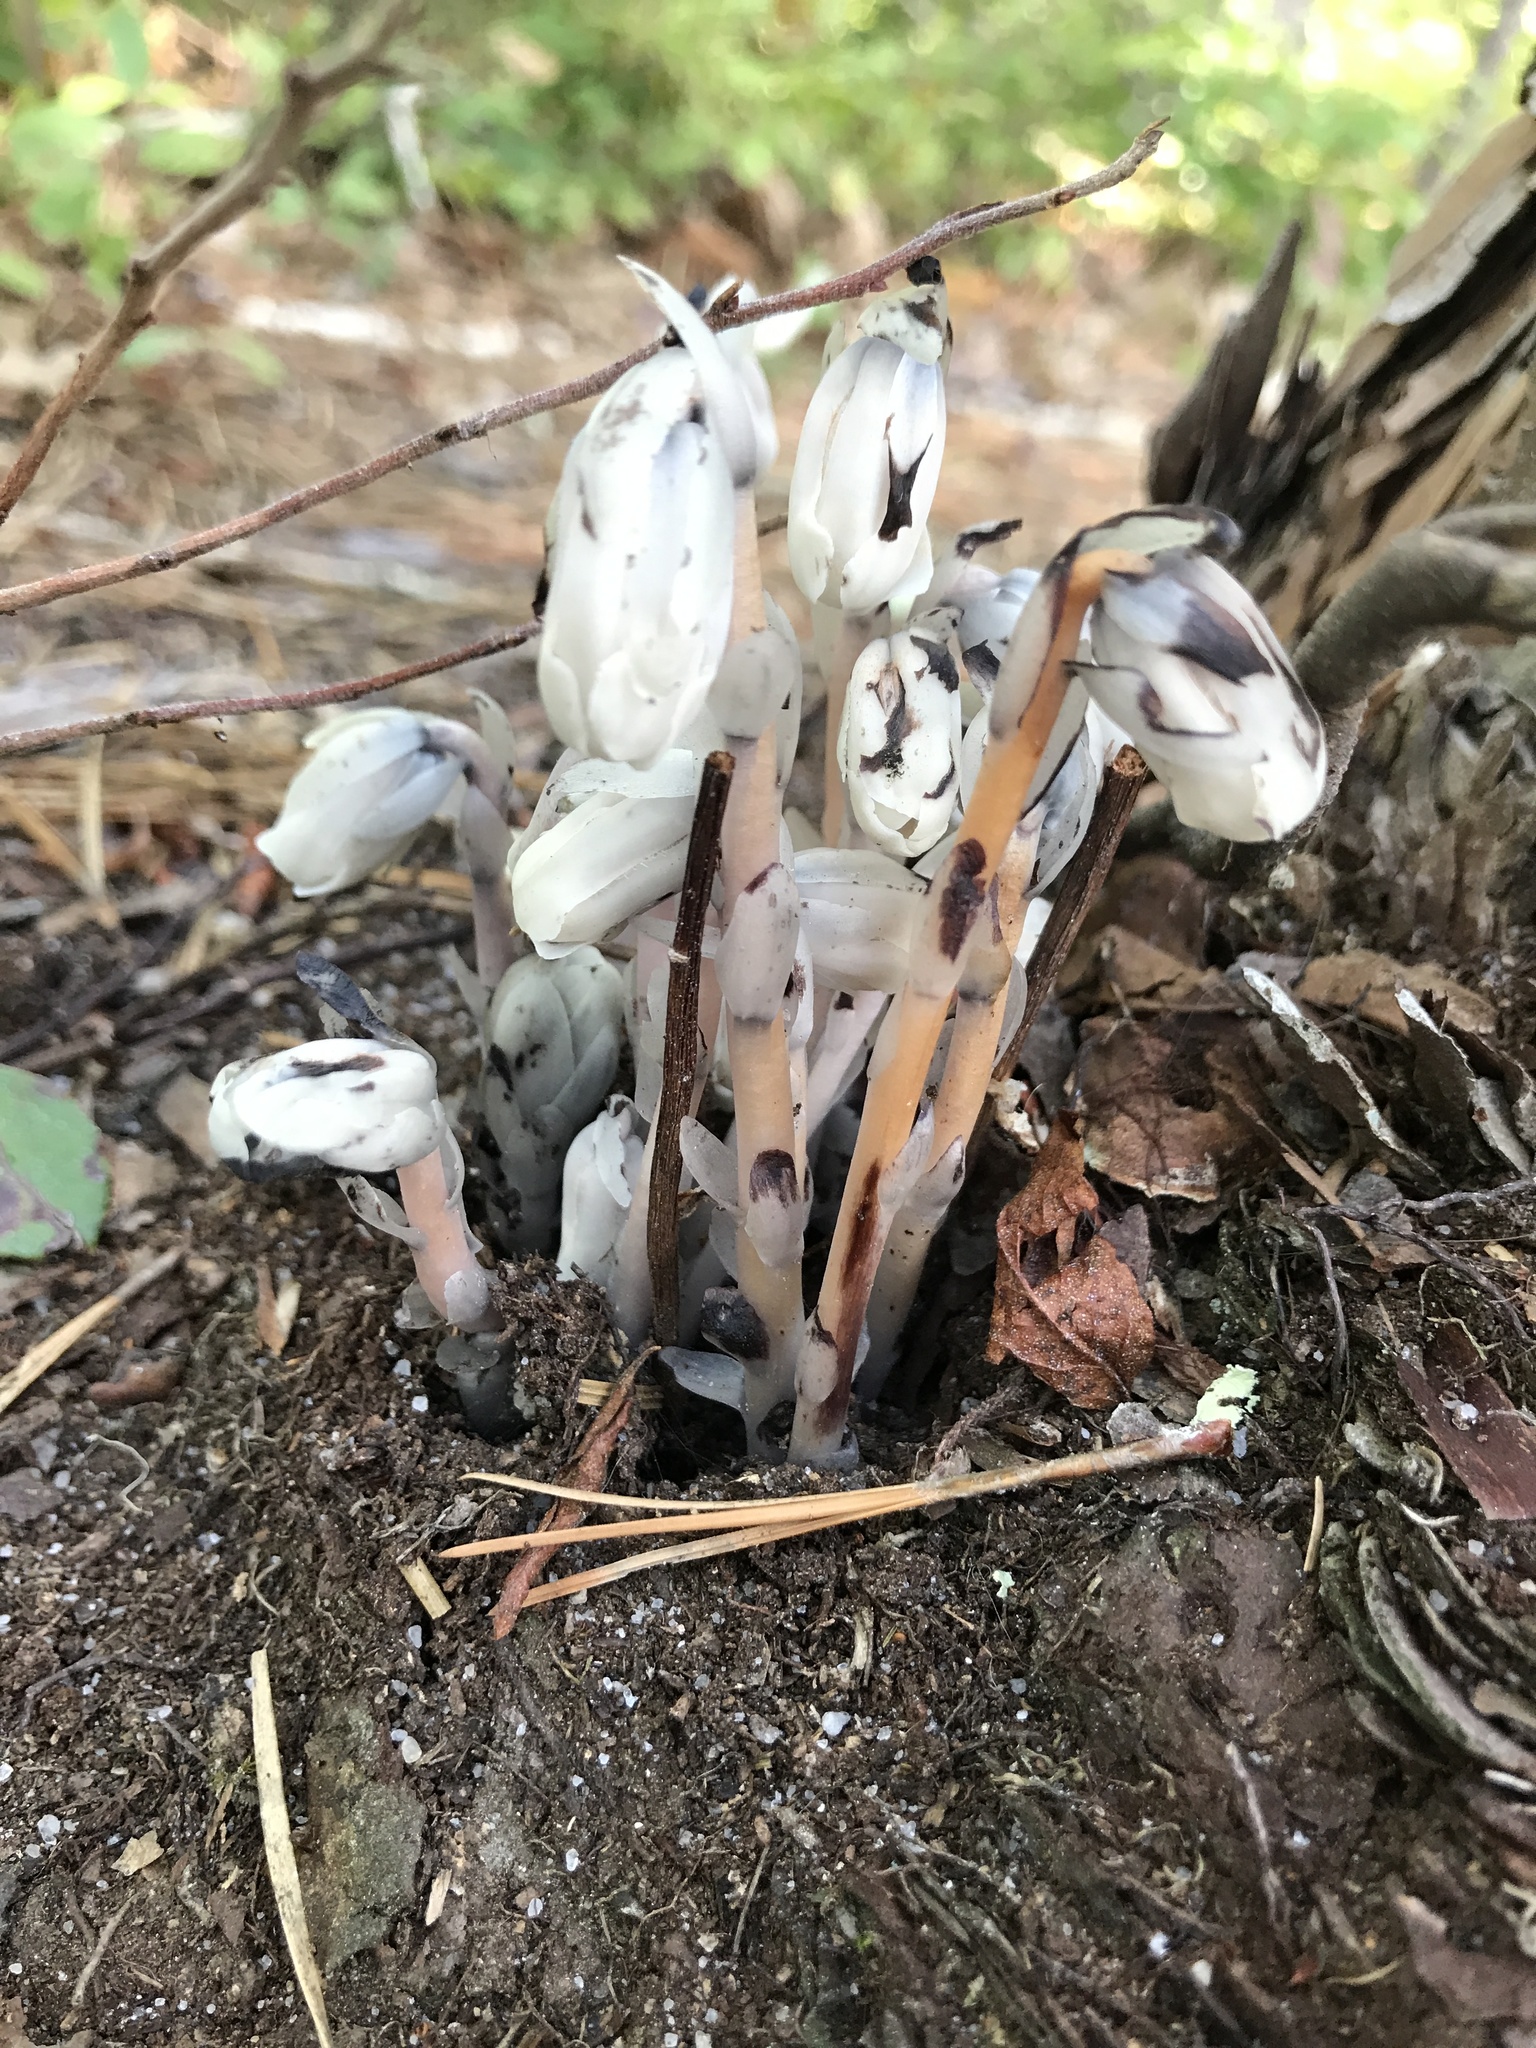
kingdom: Plantae
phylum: Tracheophyta
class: Magnoliopsida
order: Ericales
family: Ericaceae
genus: Monotropa
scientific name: Monotropa uniflora
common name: Convulsion root
